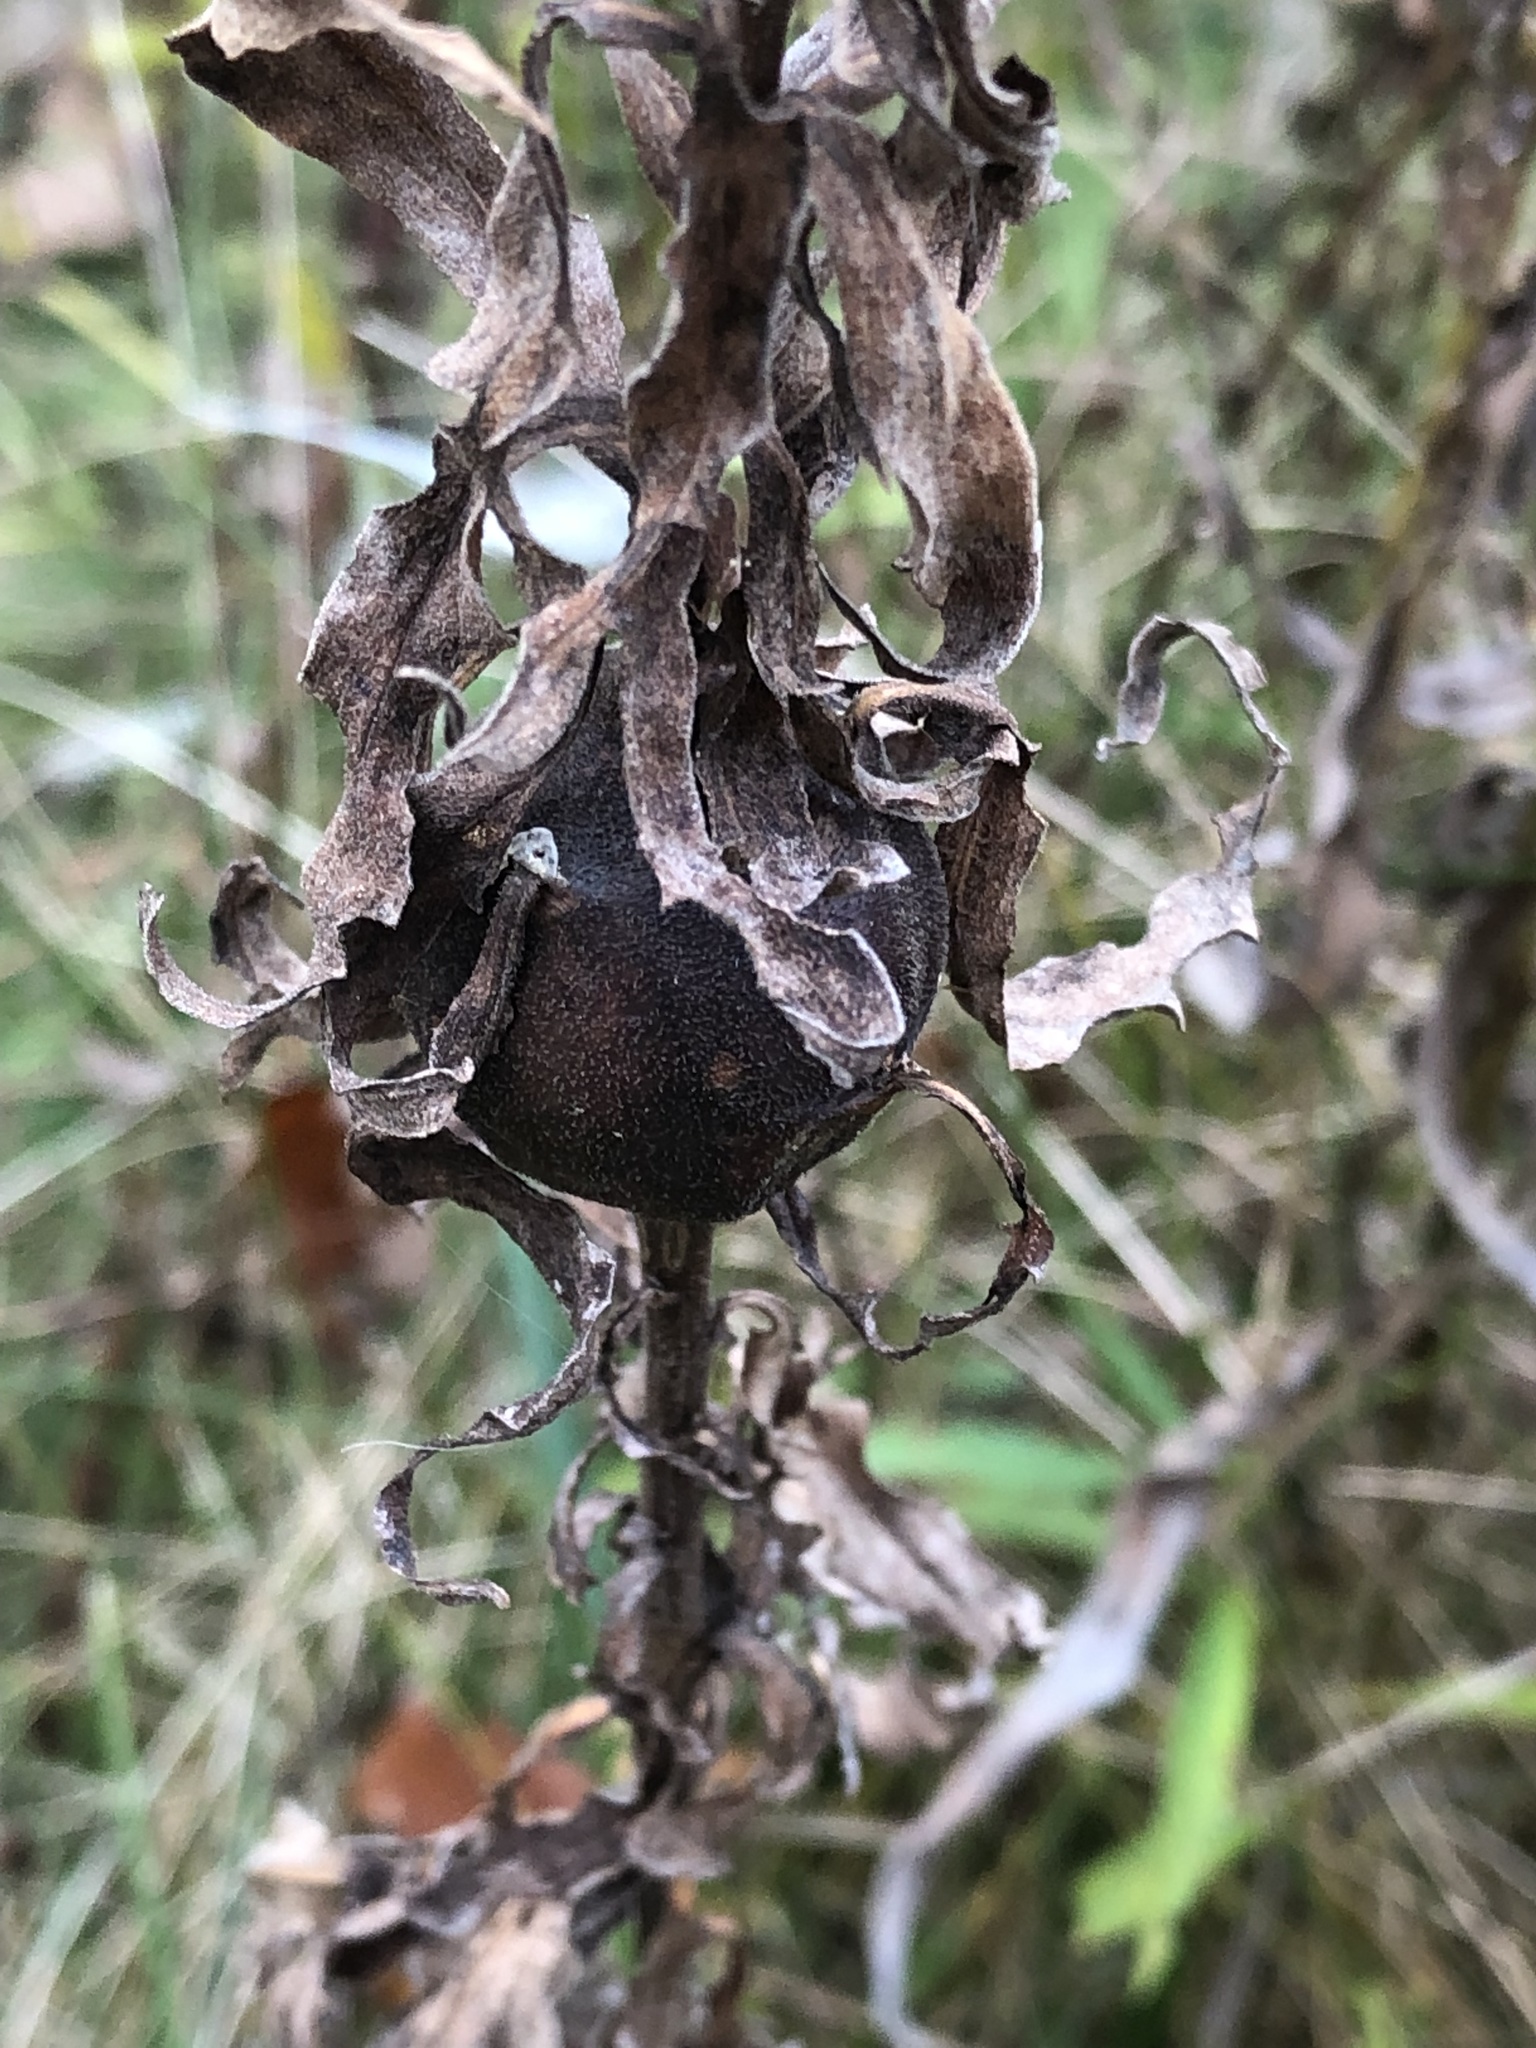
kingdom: Animalia
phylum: Arthropoda
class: Insecta
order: Diptera
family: Tephritidae
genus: Eurosta
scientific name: Eurosta solidaginis
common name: Goldenrod gall fly
